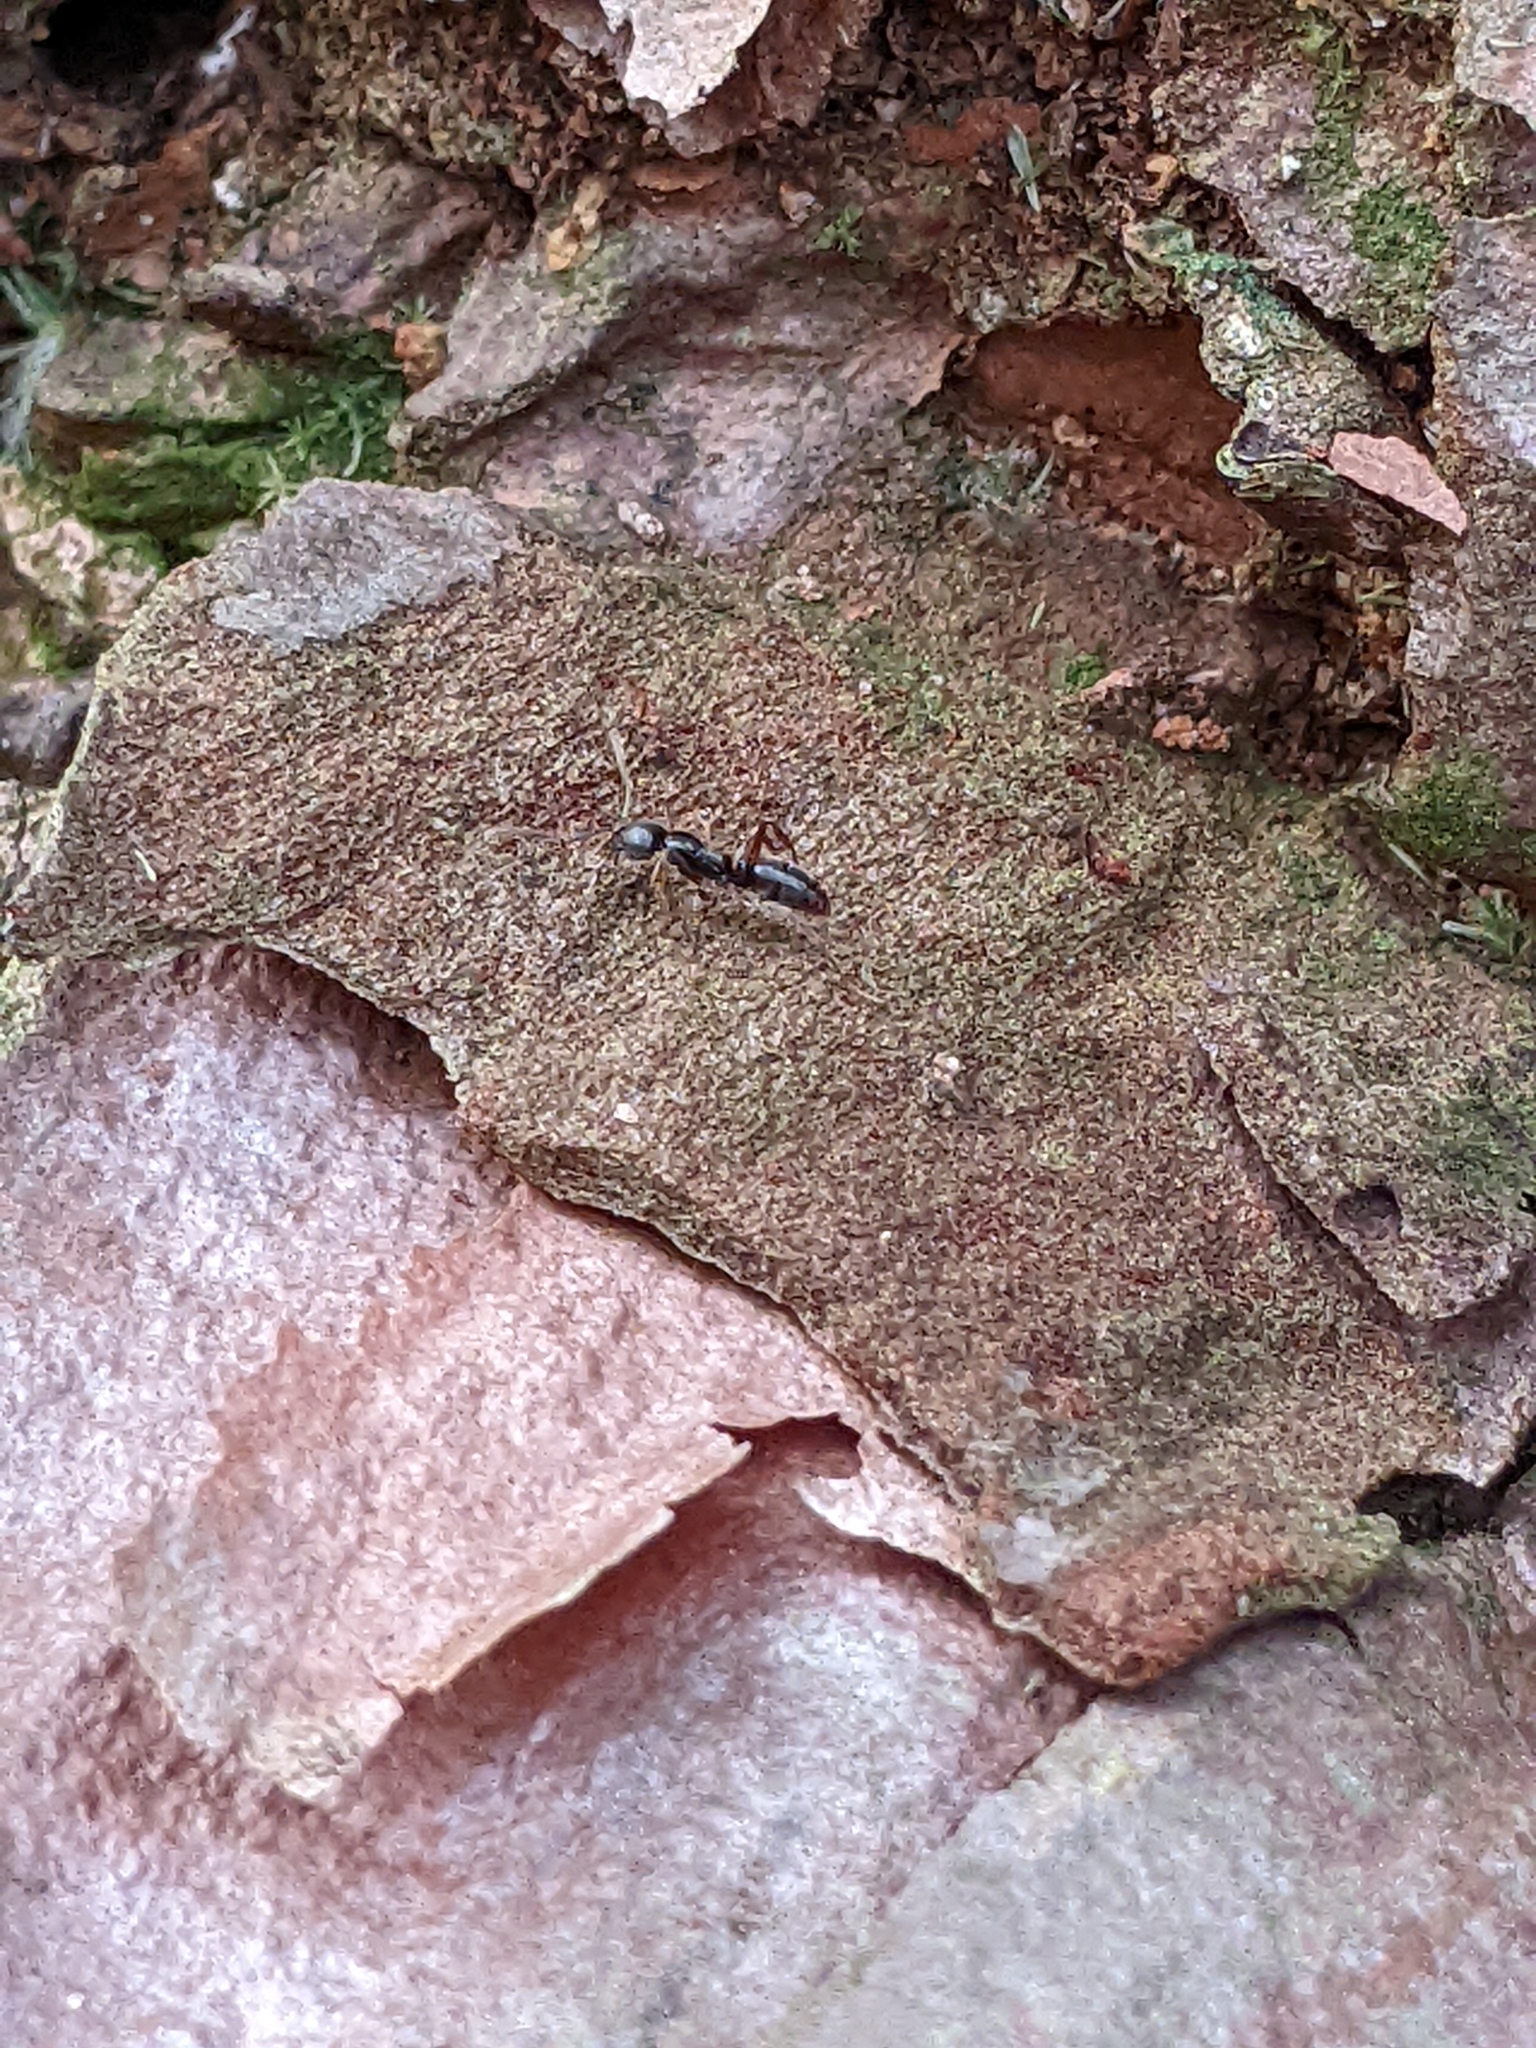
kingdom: Animalia
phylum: Arthropoda
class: Insecta
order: Hymenoptera
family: Formicidae
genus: Pachycondyla
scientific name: Pachycondyla chinensis
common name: Asian needle ant
